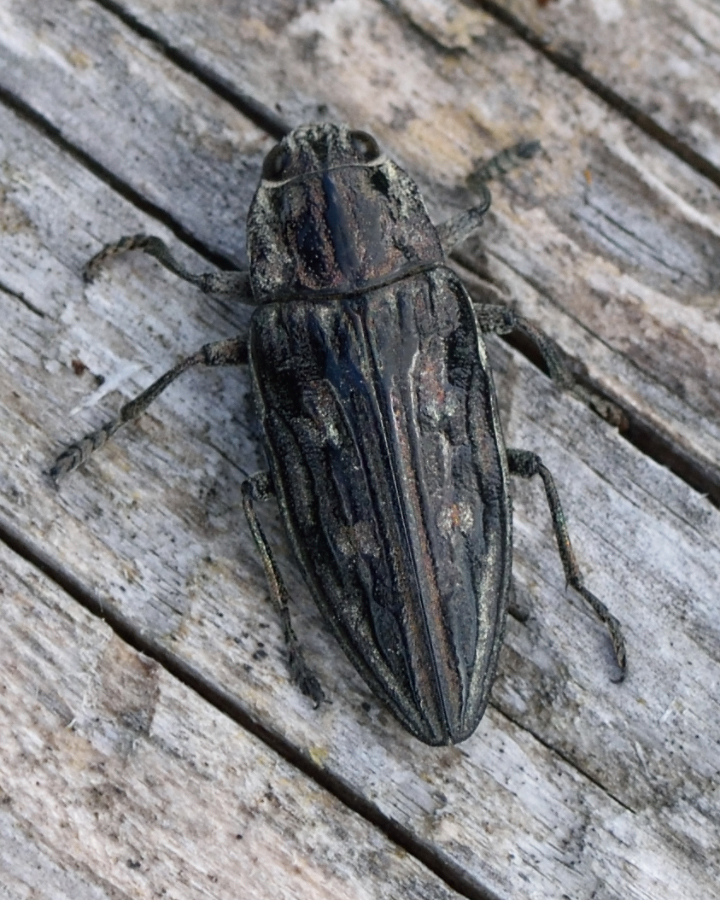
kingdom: Animalia
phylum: Arthropoda
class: Insecta
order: Coleoptera
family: Buprestidae
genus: Chalcophora
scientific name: Chalcophora mariana
